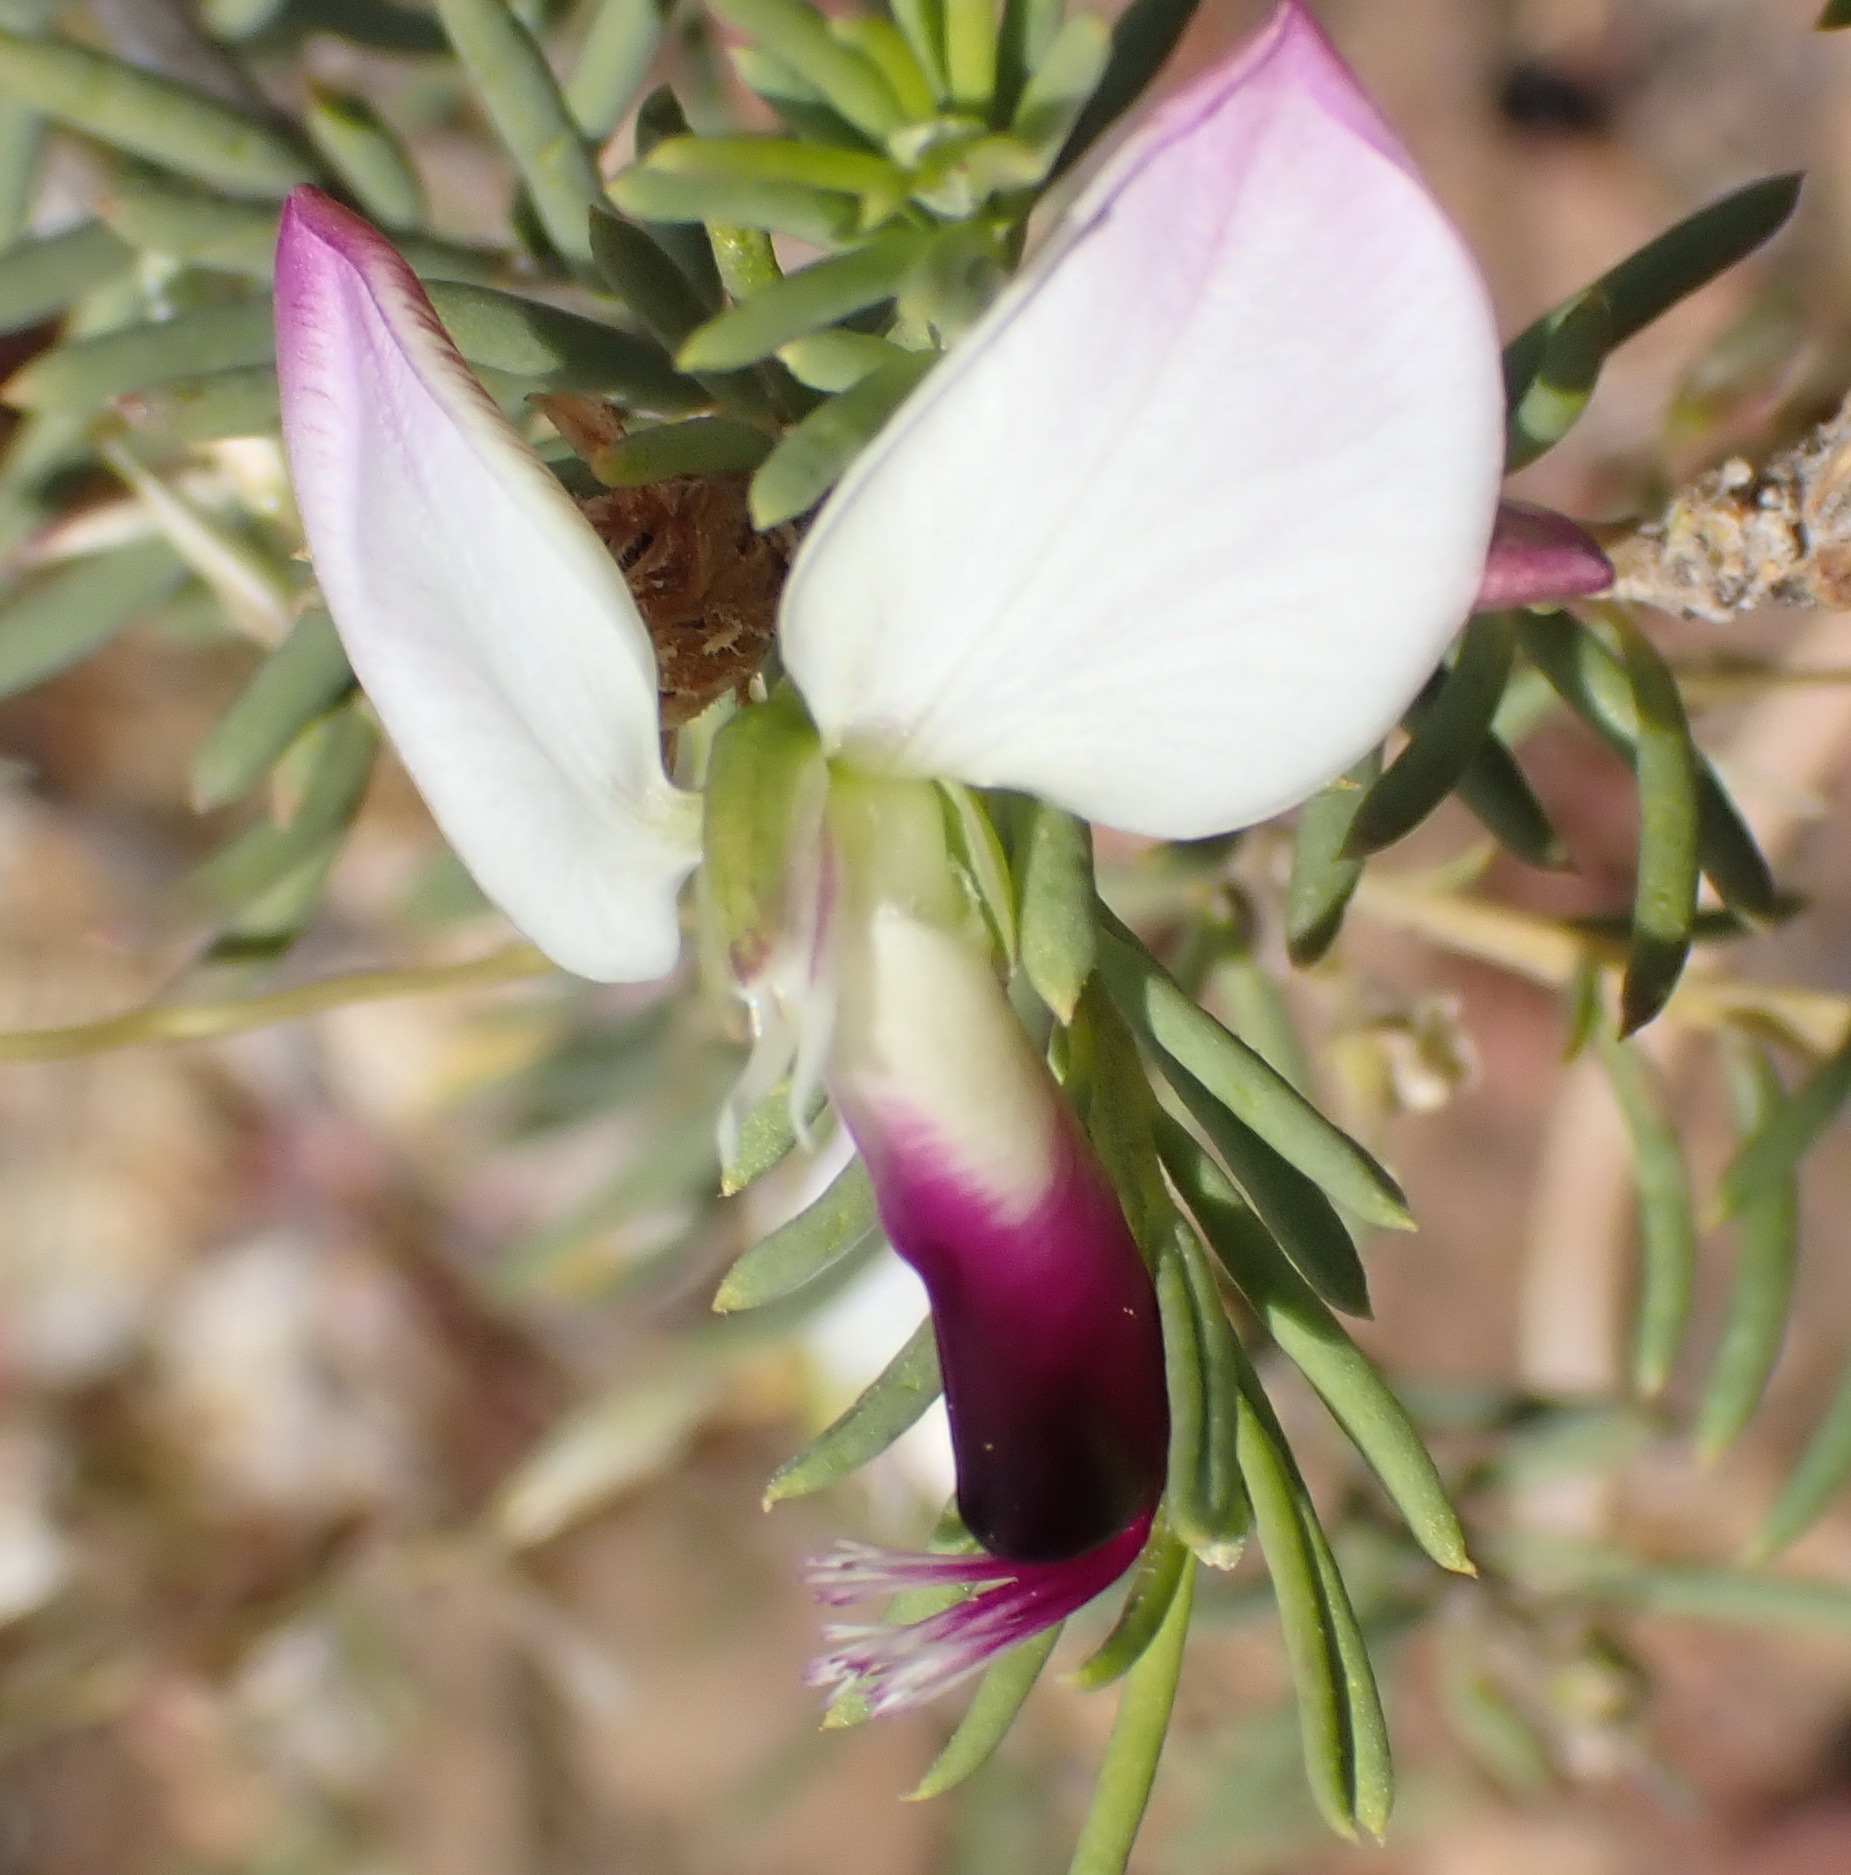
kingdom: Plantae
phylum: Tracheophyta
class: Magnoliopsida
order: Fabales
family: Polygalaceae
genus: Polygala
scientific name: Polygala myrtifolia
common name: Myrtle-leaf milkwort
